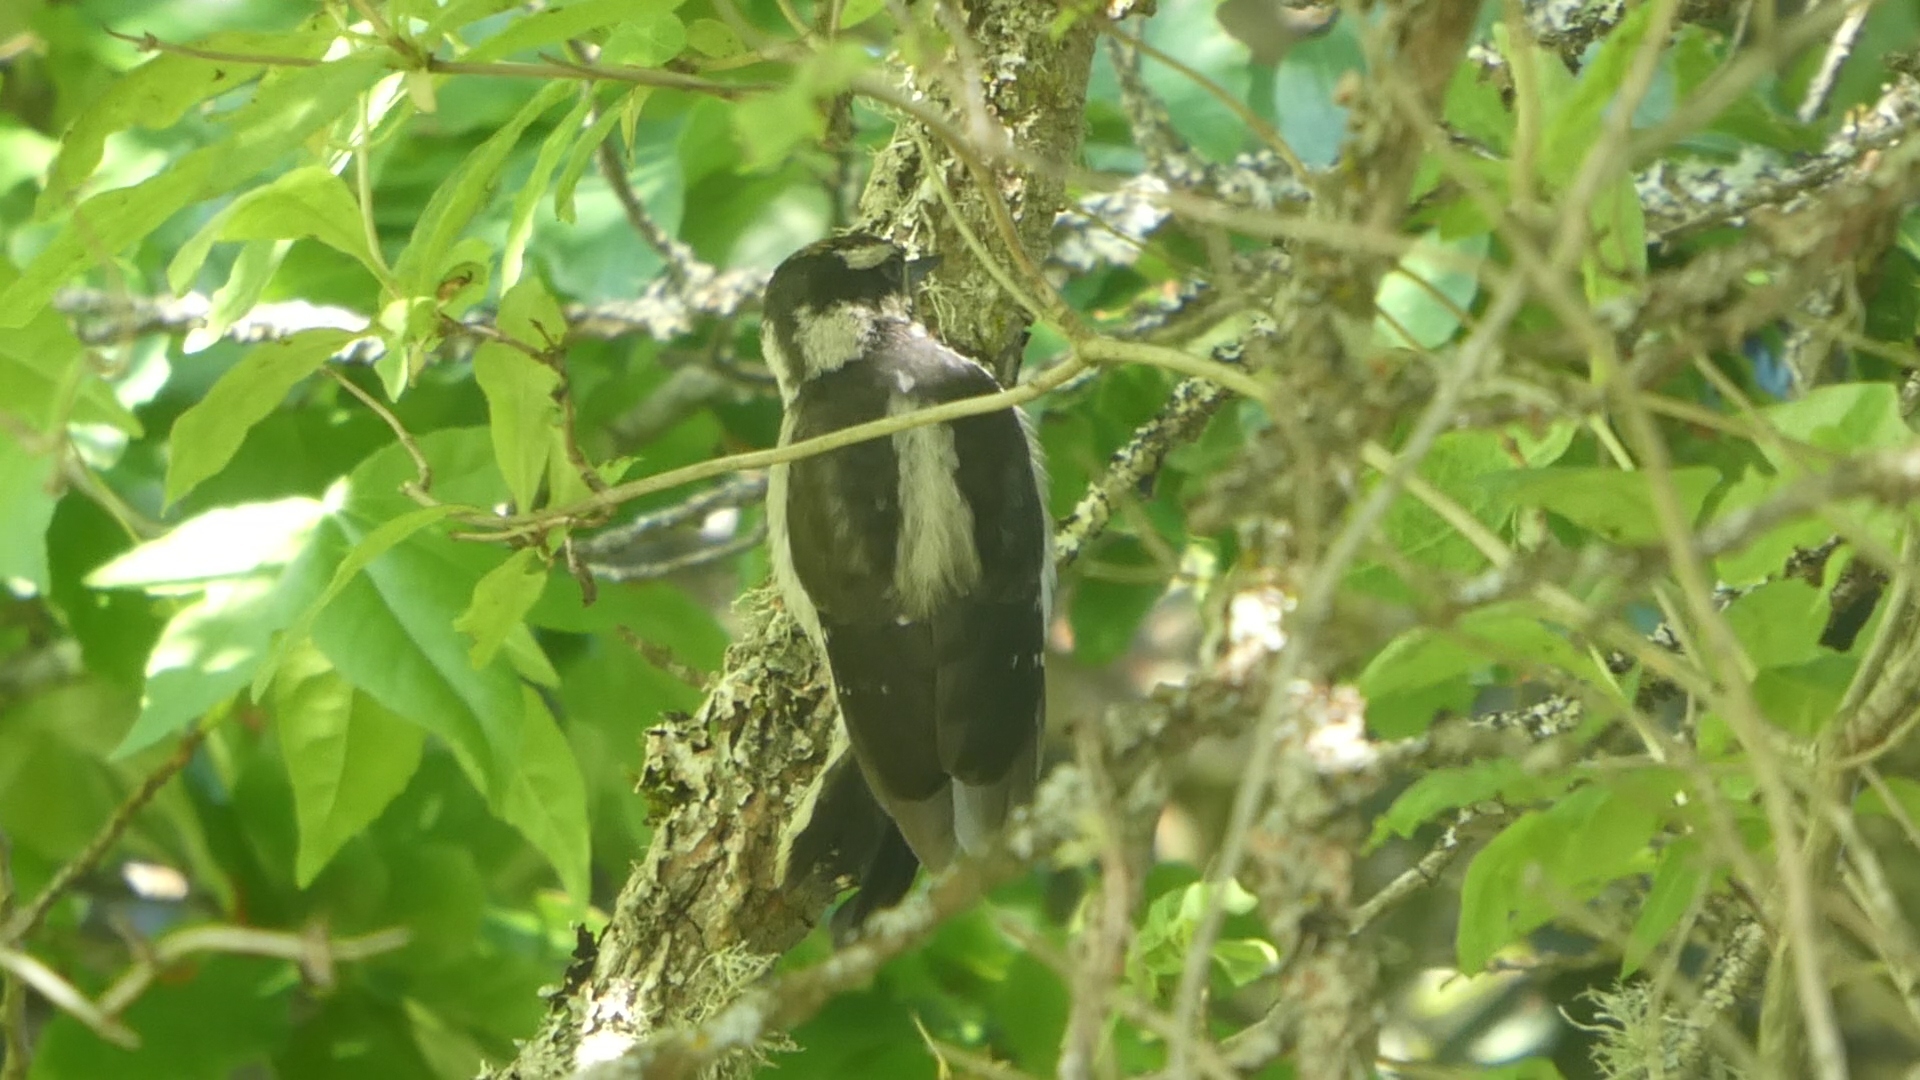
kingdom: Animalia
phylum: Chordata
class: Aves
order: Piciformes
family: Picidae
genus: Dryobates
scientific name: Dryobates pubescens
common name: Downy woodpecker
